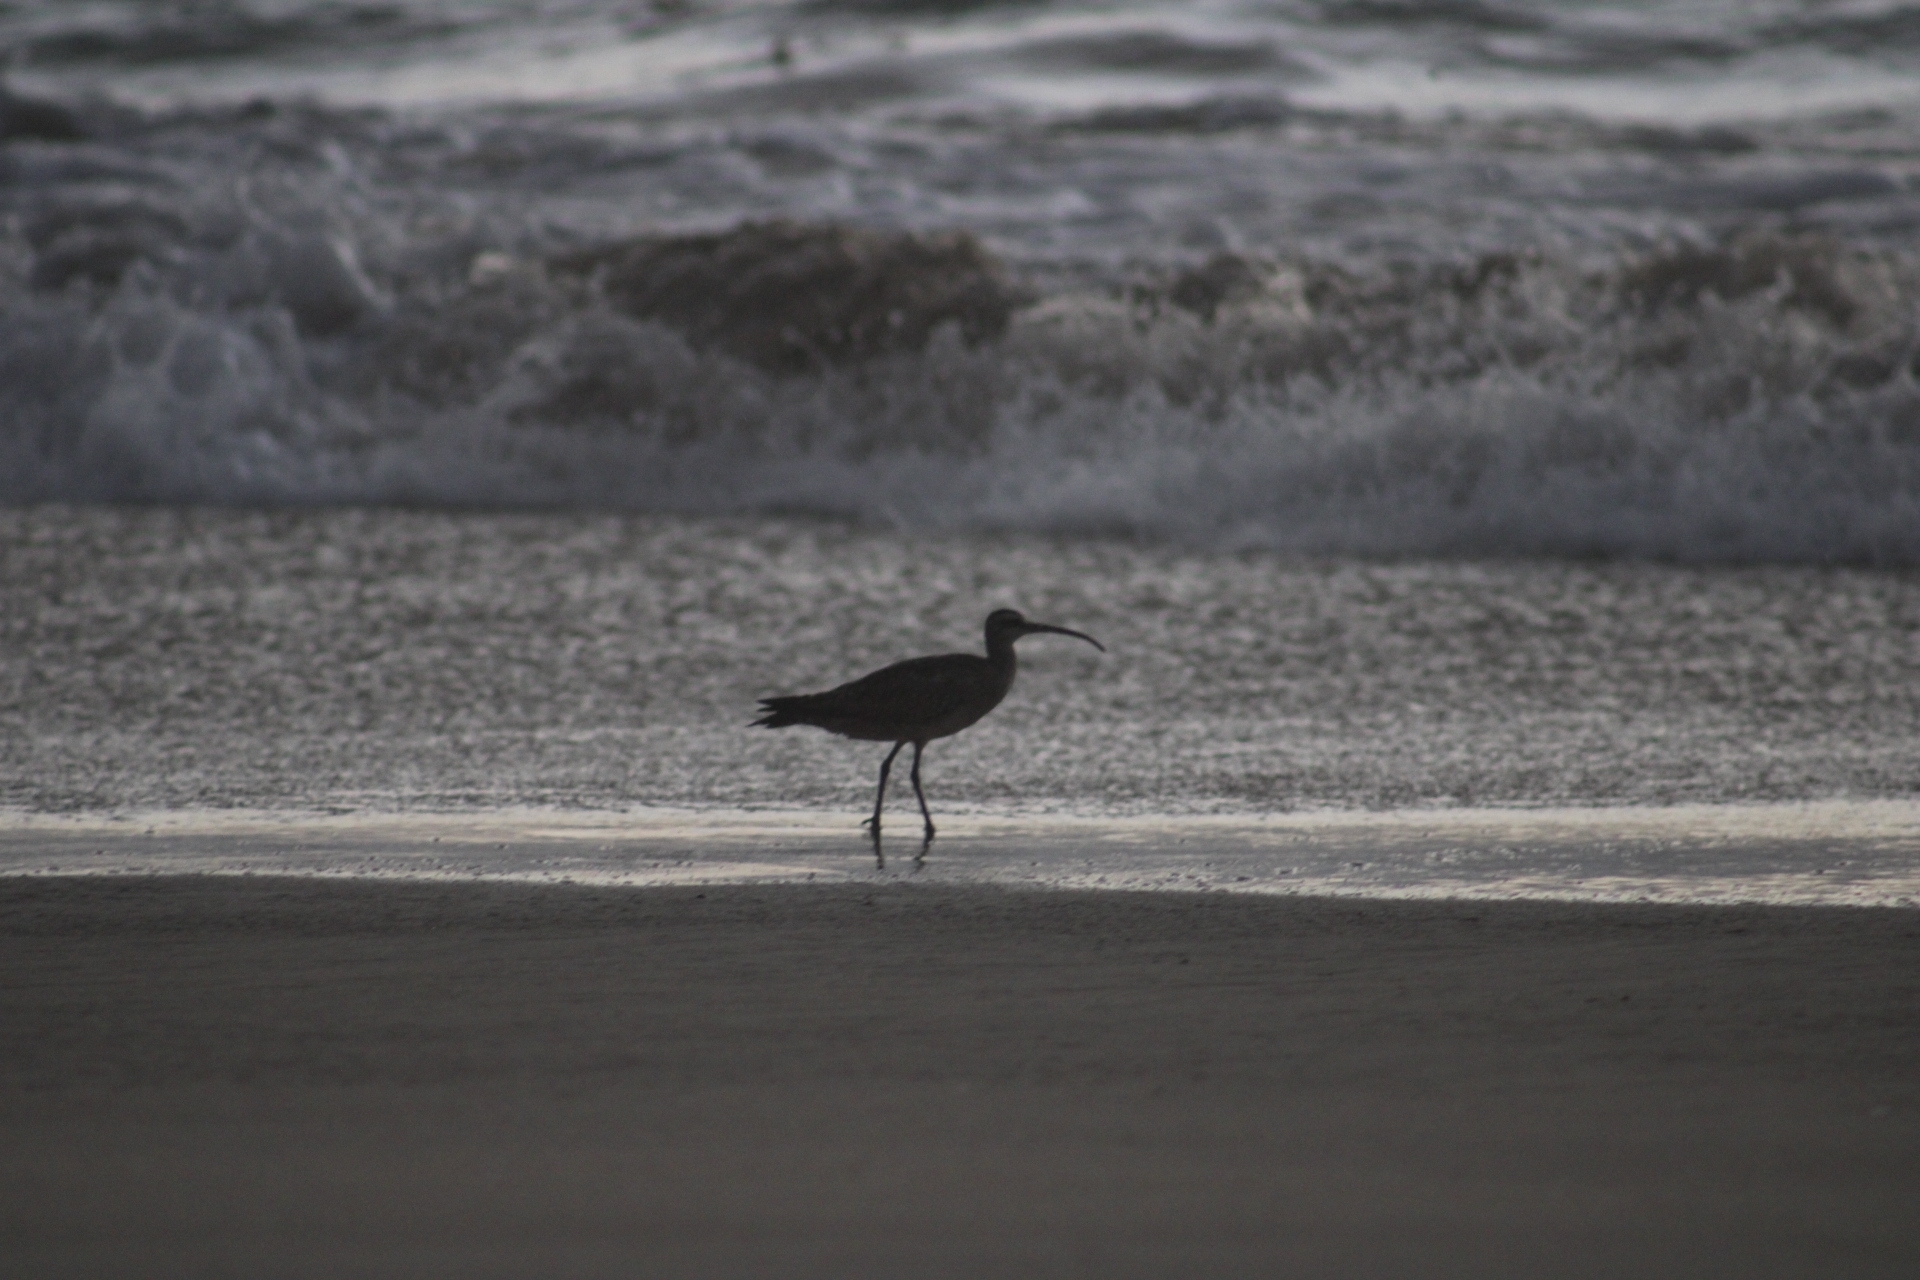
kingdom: Animalia
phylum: Chordata
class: Aves
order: Charadriiformes
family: Scolopacidae
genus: Numenius
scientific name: Numenius phaeopus
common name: Whimbrel
